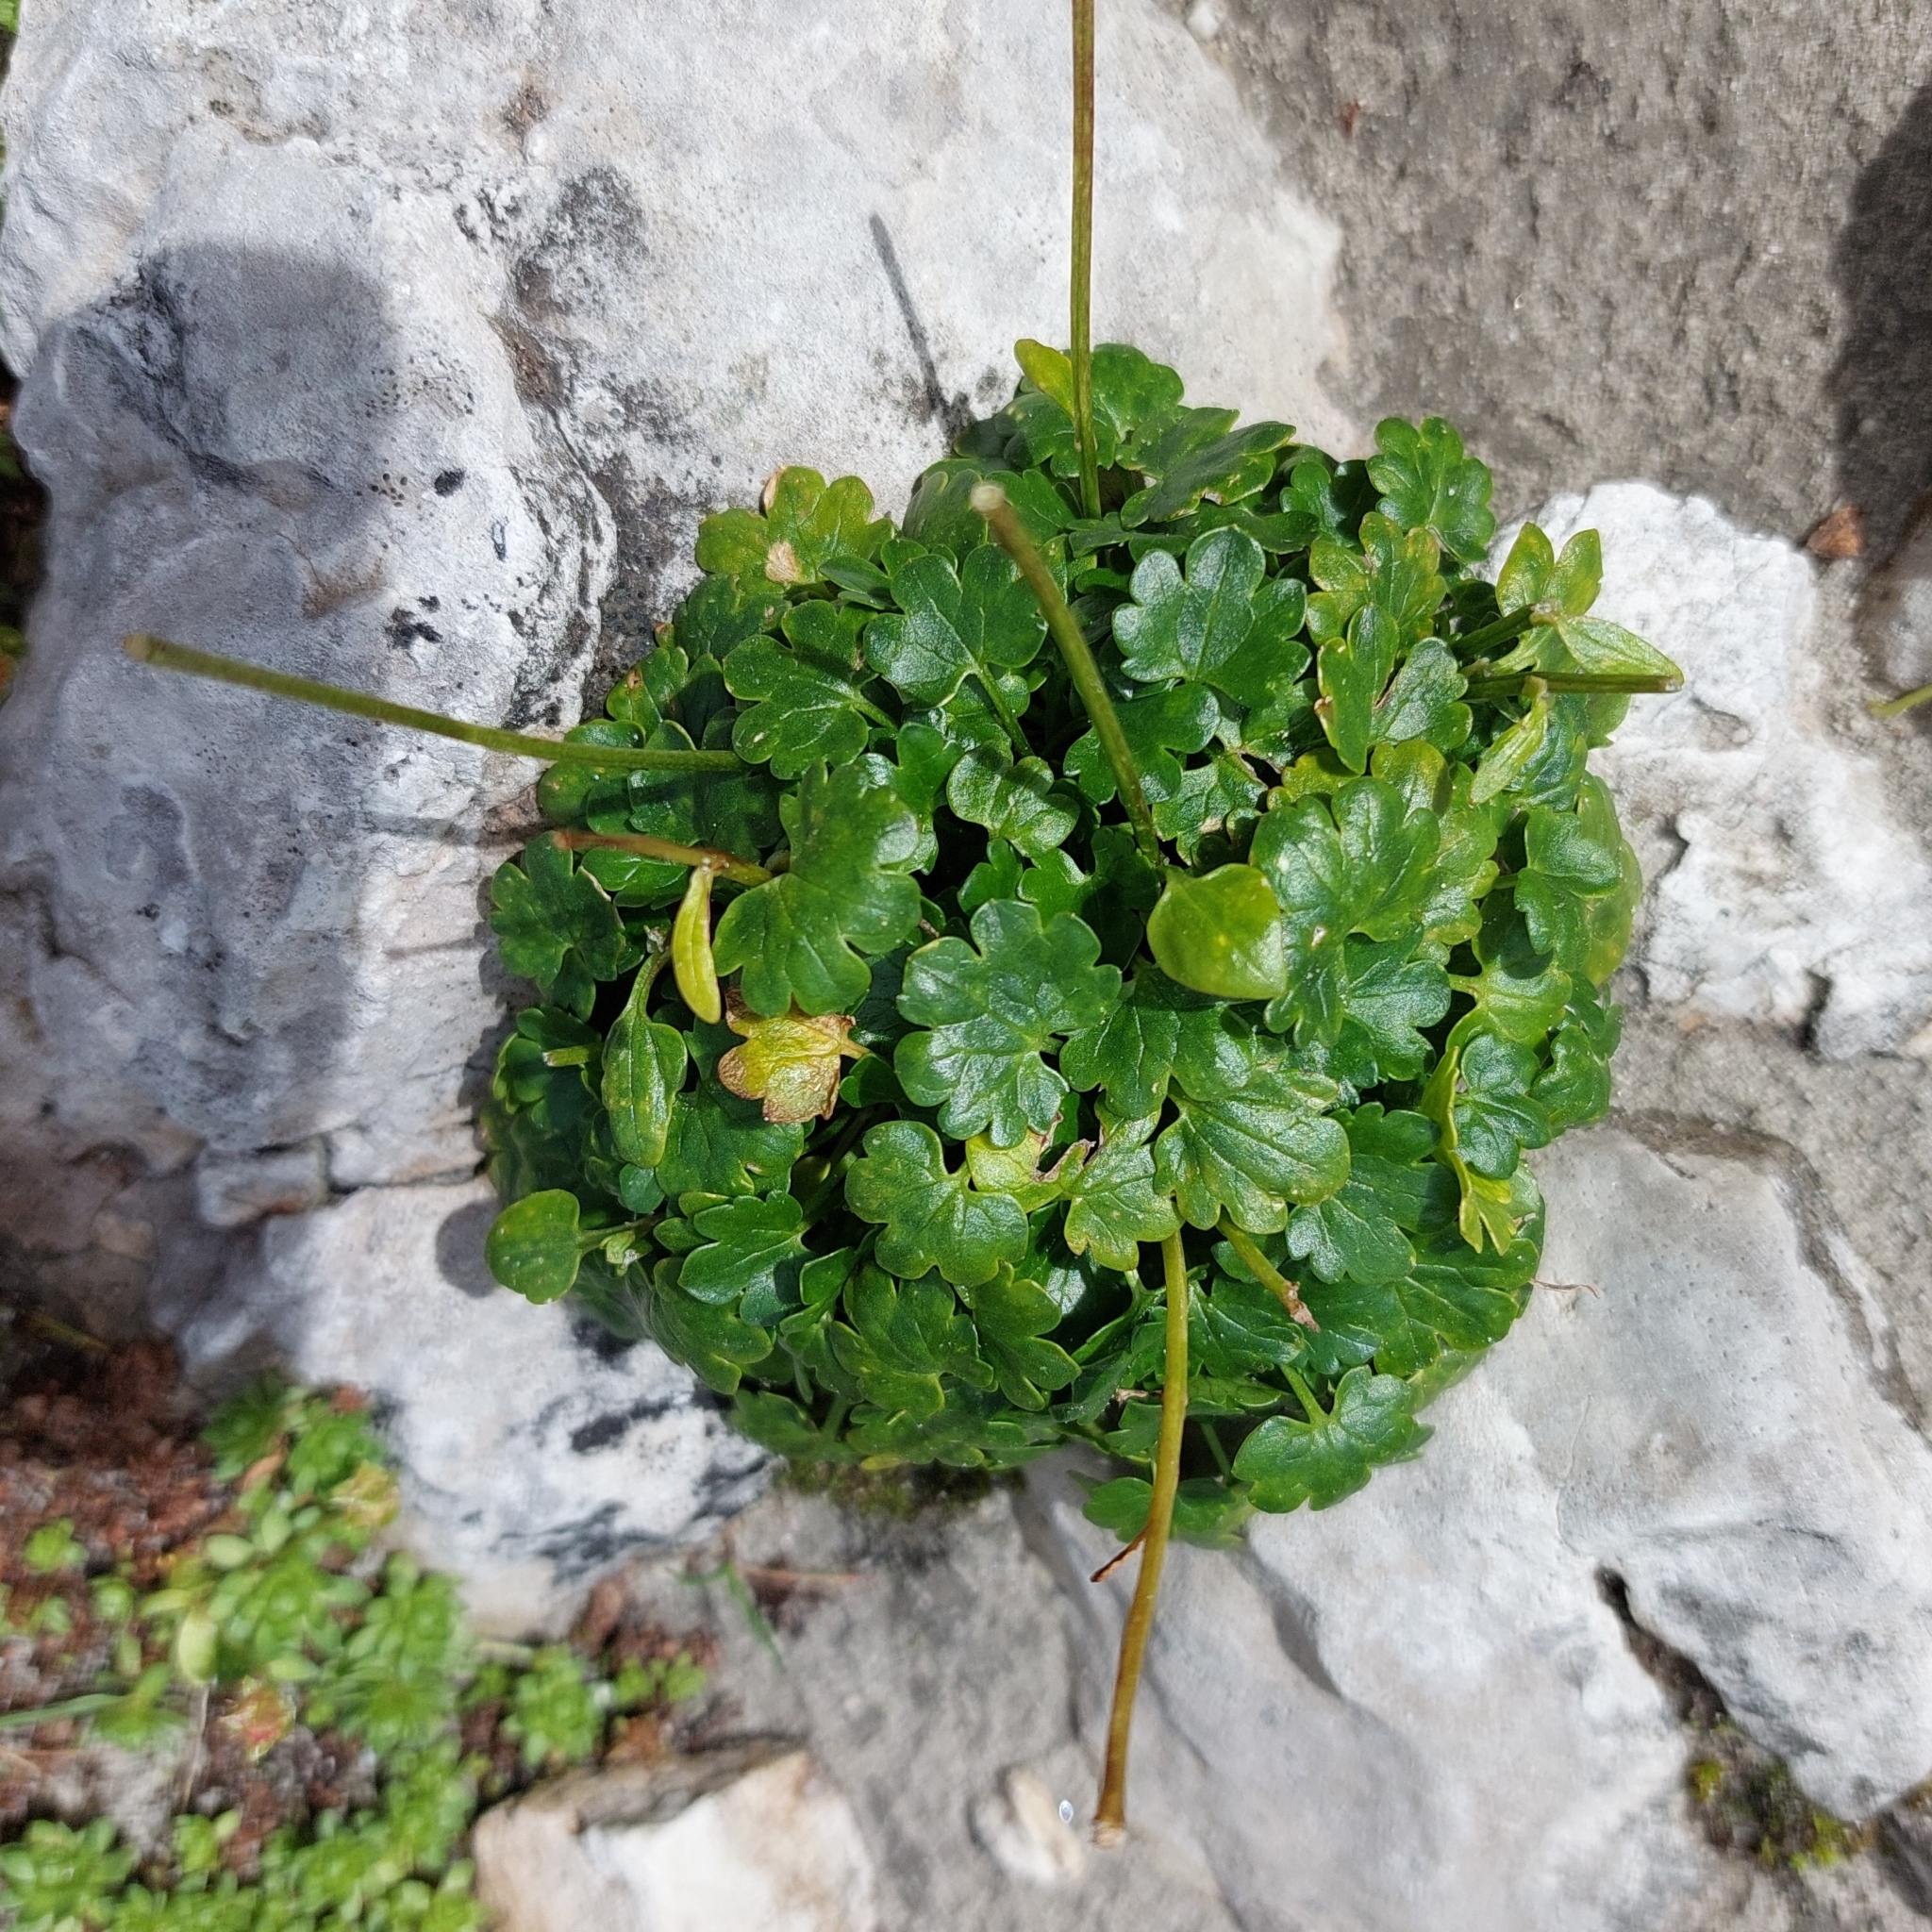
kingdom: Plantae
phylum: Tracheophyta
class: Magnoliopsida
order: Ranunculales
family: Ranunculaceae
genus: Ranunculus
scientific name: Ranunculus alpestris
